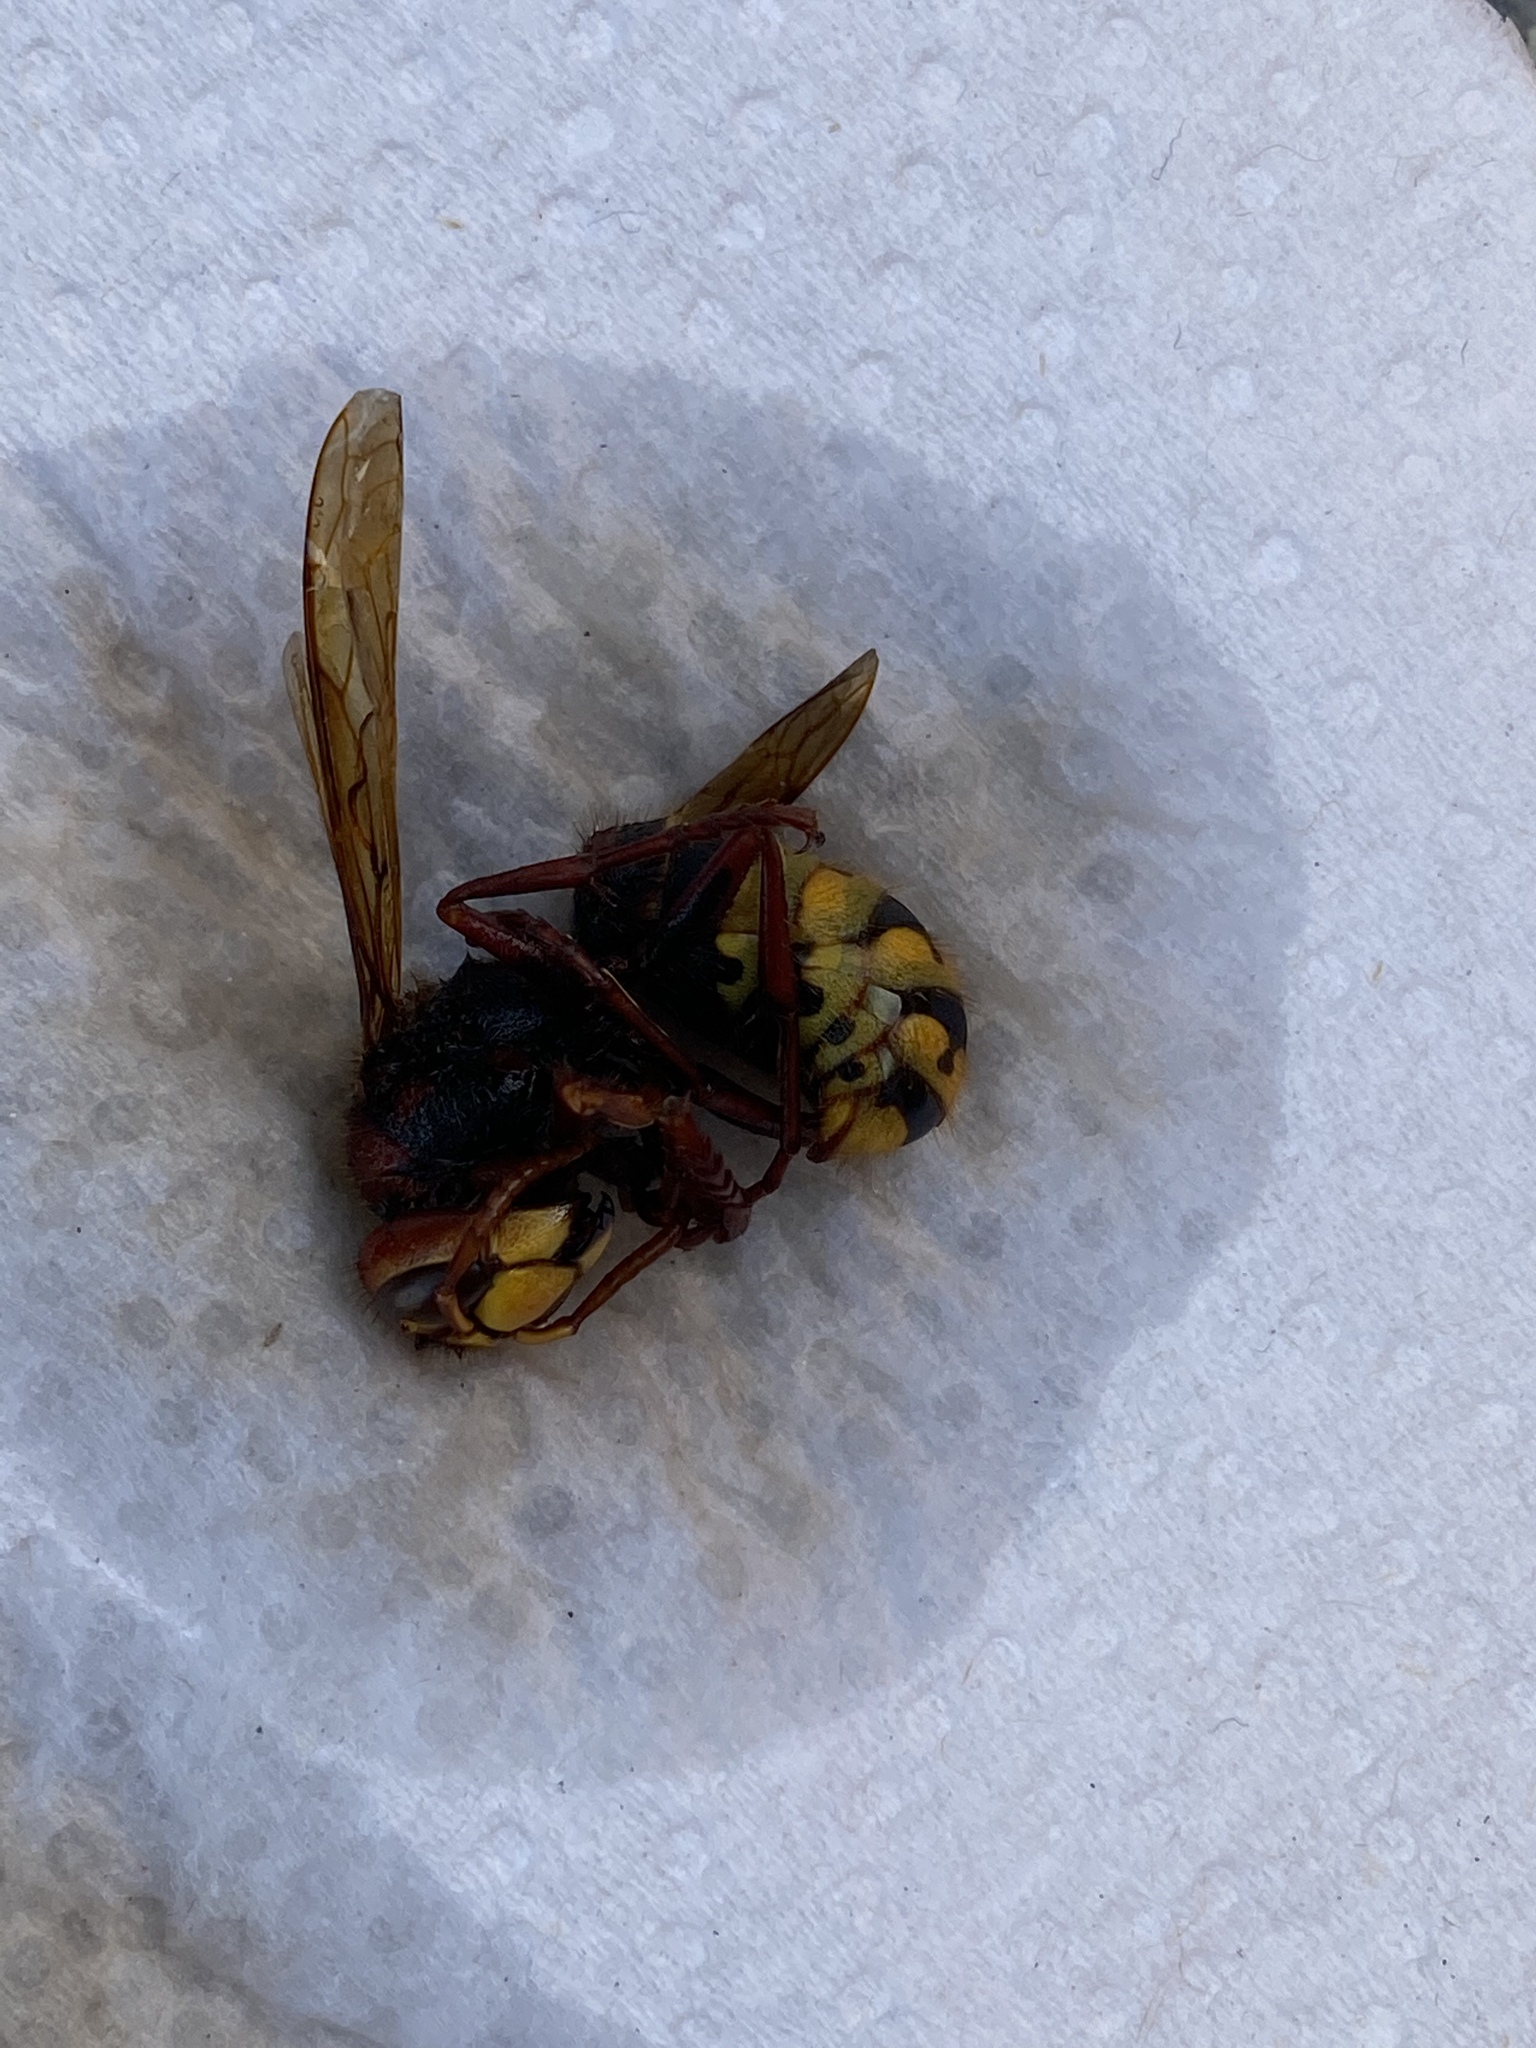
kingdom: Animalia
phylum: Arthropoda
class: Insecta
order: Hymenoptera
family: Vespidae
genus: Vespa
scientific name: Vespa crabro
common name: Hornet
